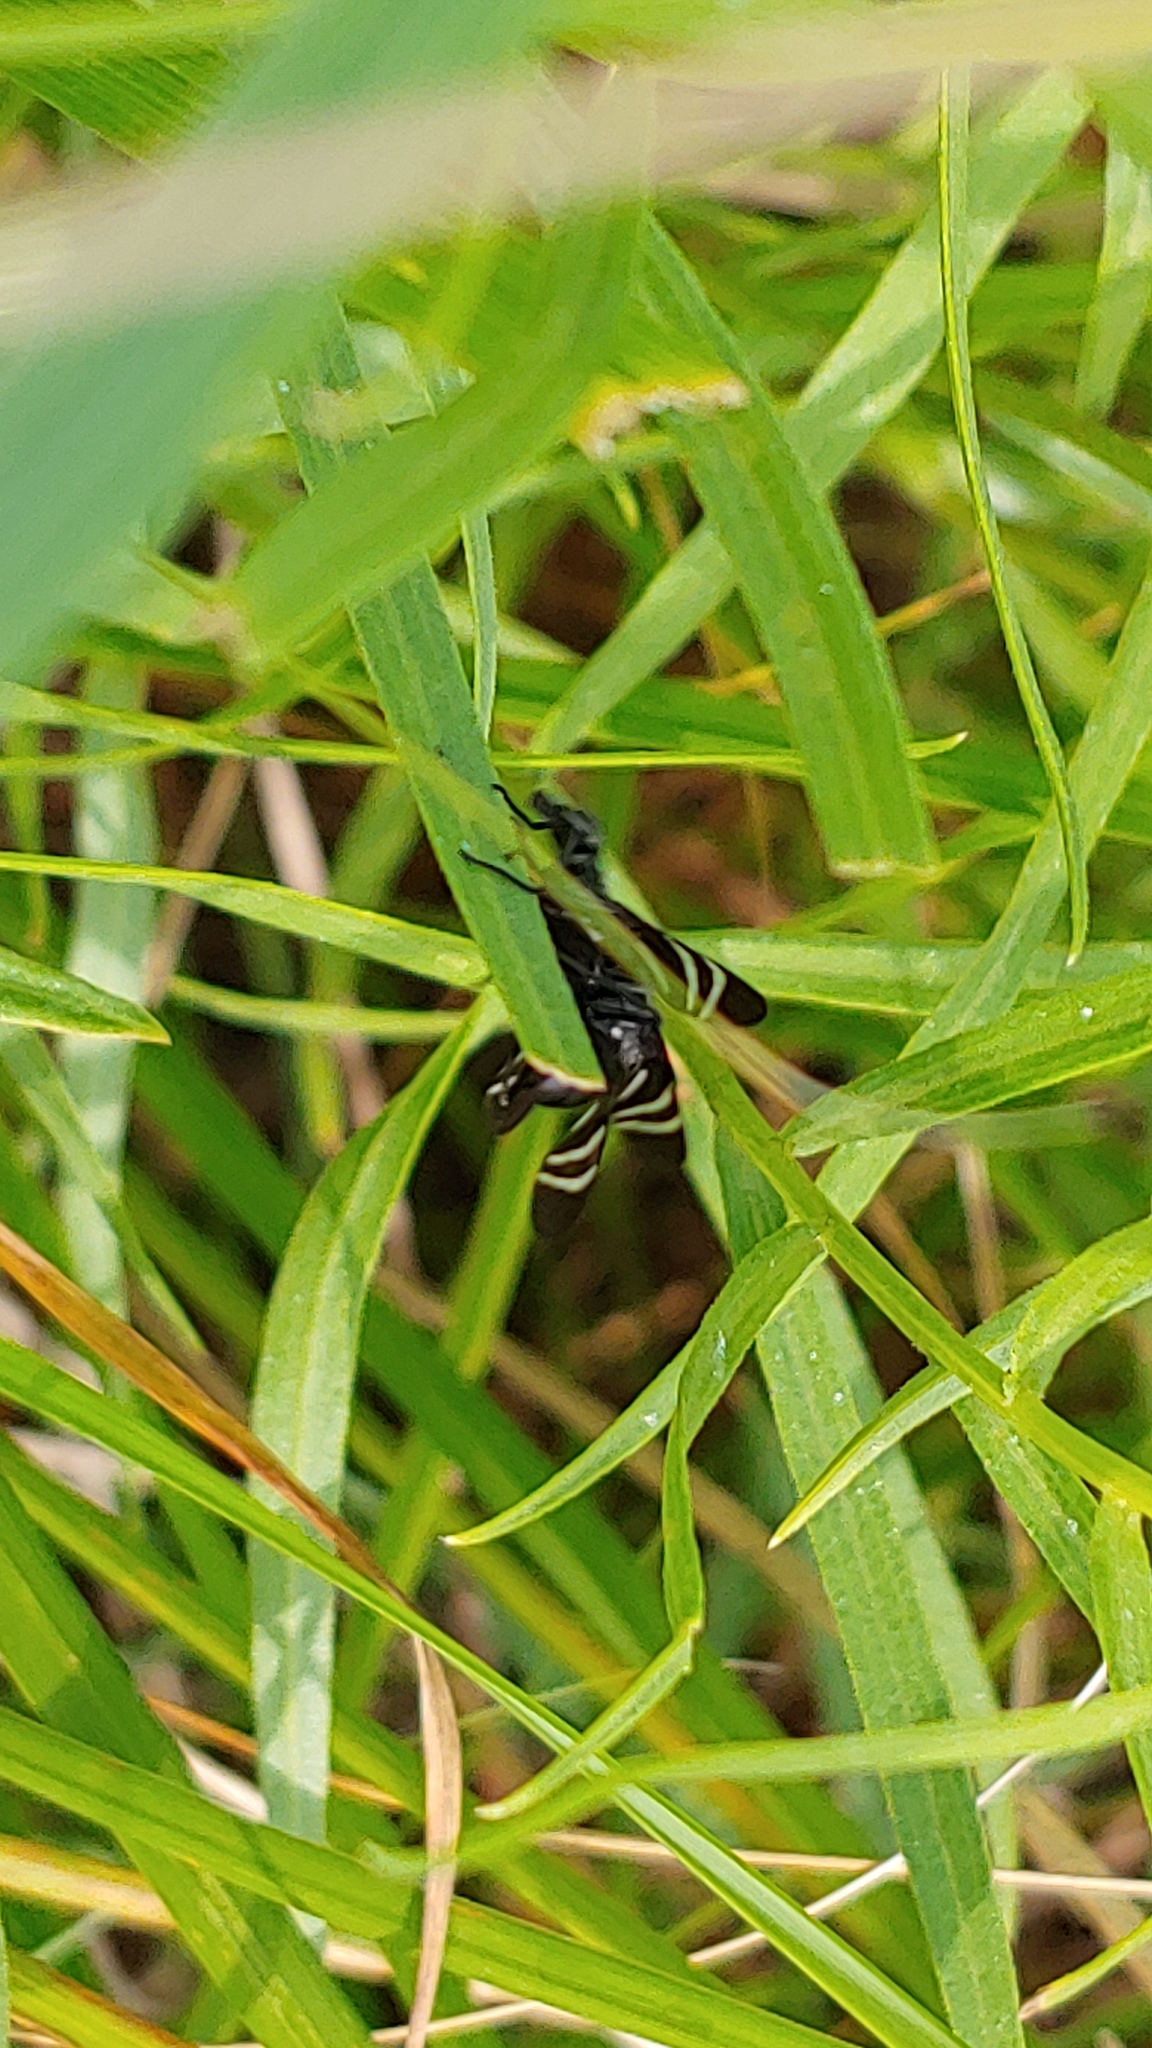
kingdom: Animalia
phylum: Arthropoda
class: Insecta
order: Diptera
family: Ulidiidae
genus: Tritoxa
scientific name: Tritoxa flexa
